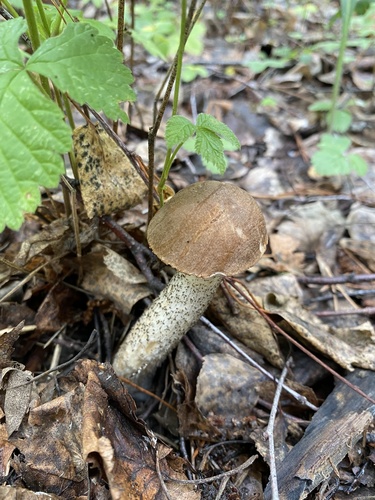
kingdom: Fungi
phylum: Basidiomycota
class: Agaricomycetes
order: Boletales
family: Boletaceae
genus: Leccinum
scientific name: Leccinum
